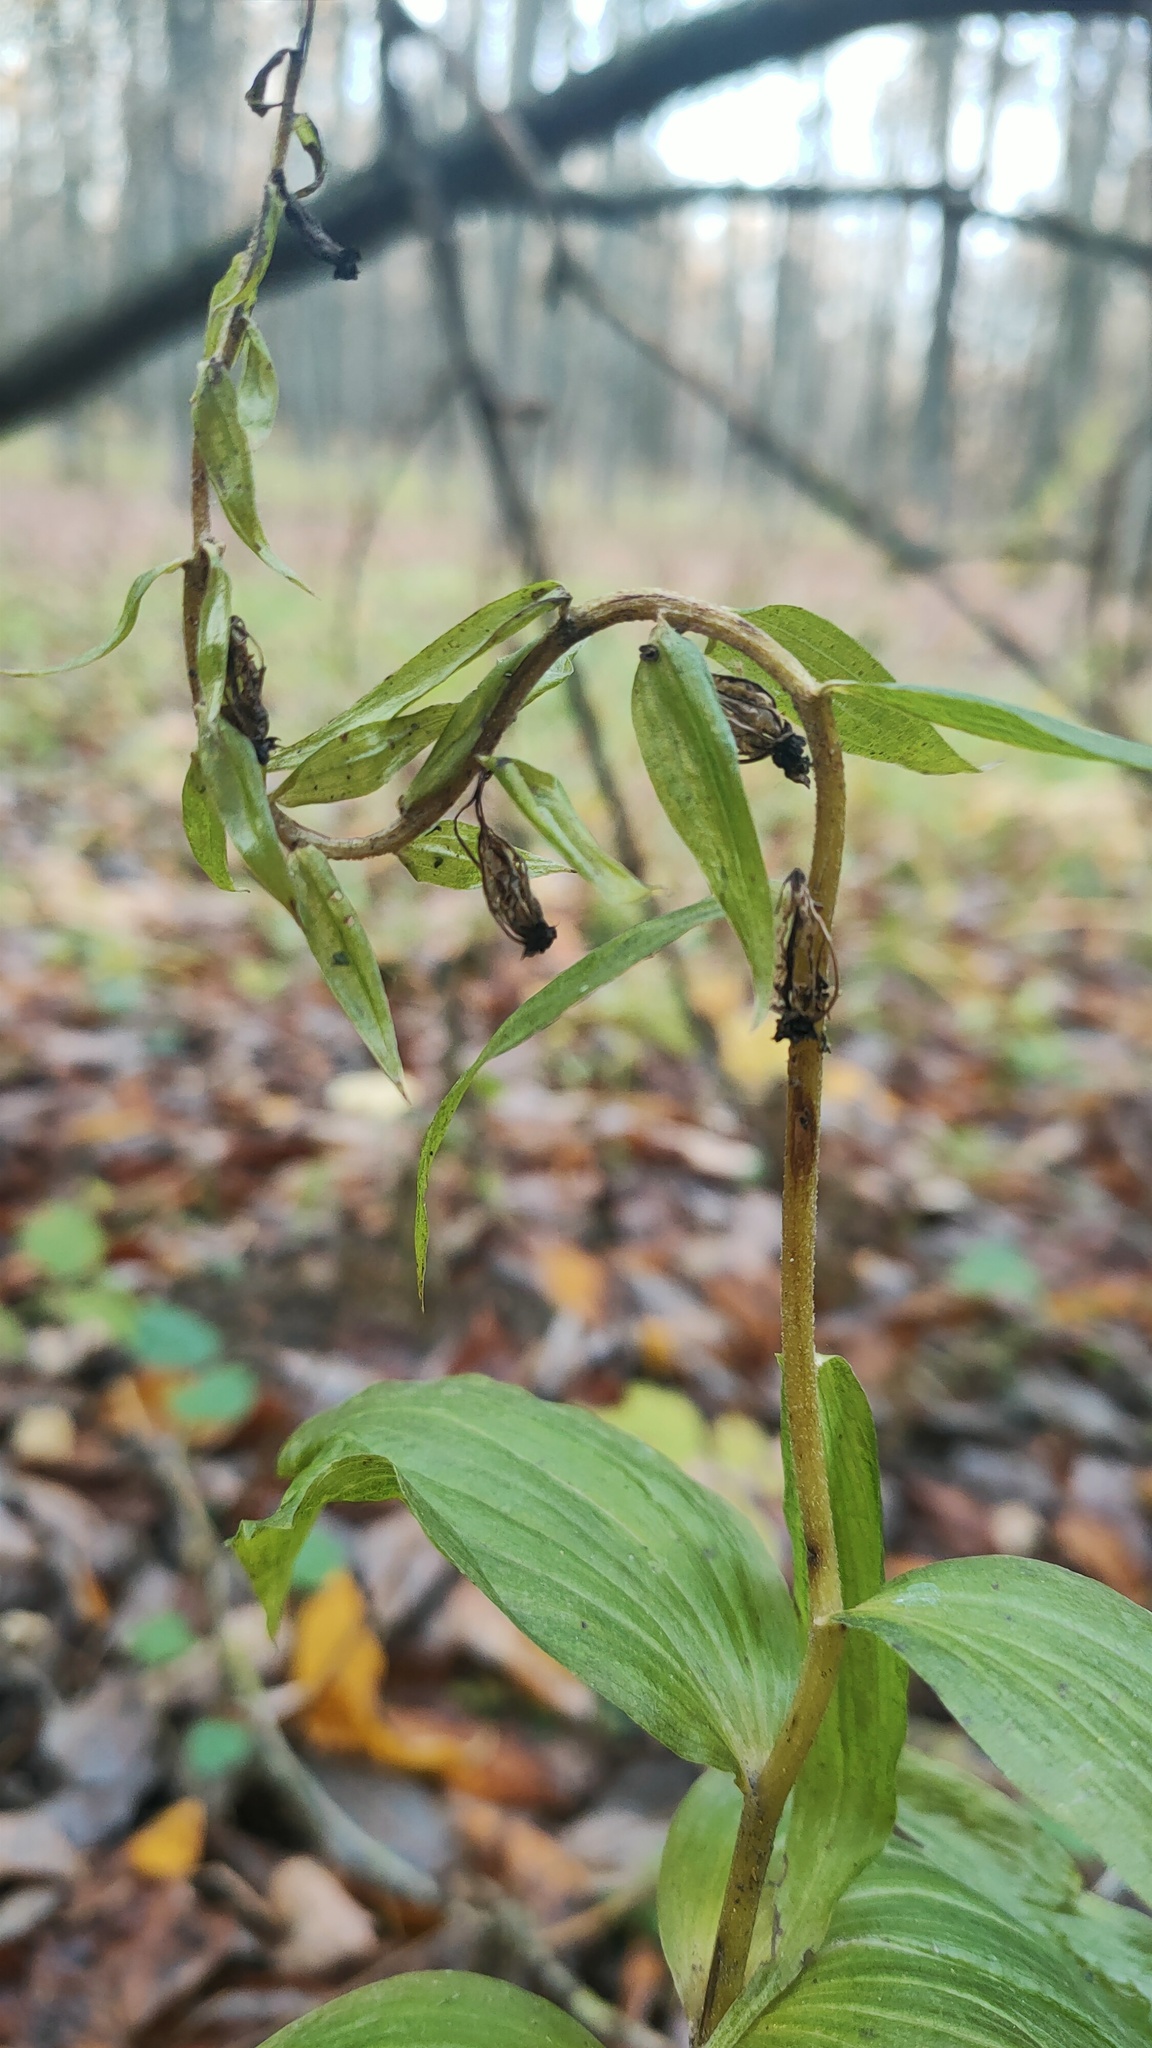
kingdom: Plantae
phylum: Tracheophyta
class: Liliopsida
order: Asparagales
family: Orchidaceae
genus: Epipactis
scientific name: Epipactis helleborine
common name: Broad-leaved helleborine
